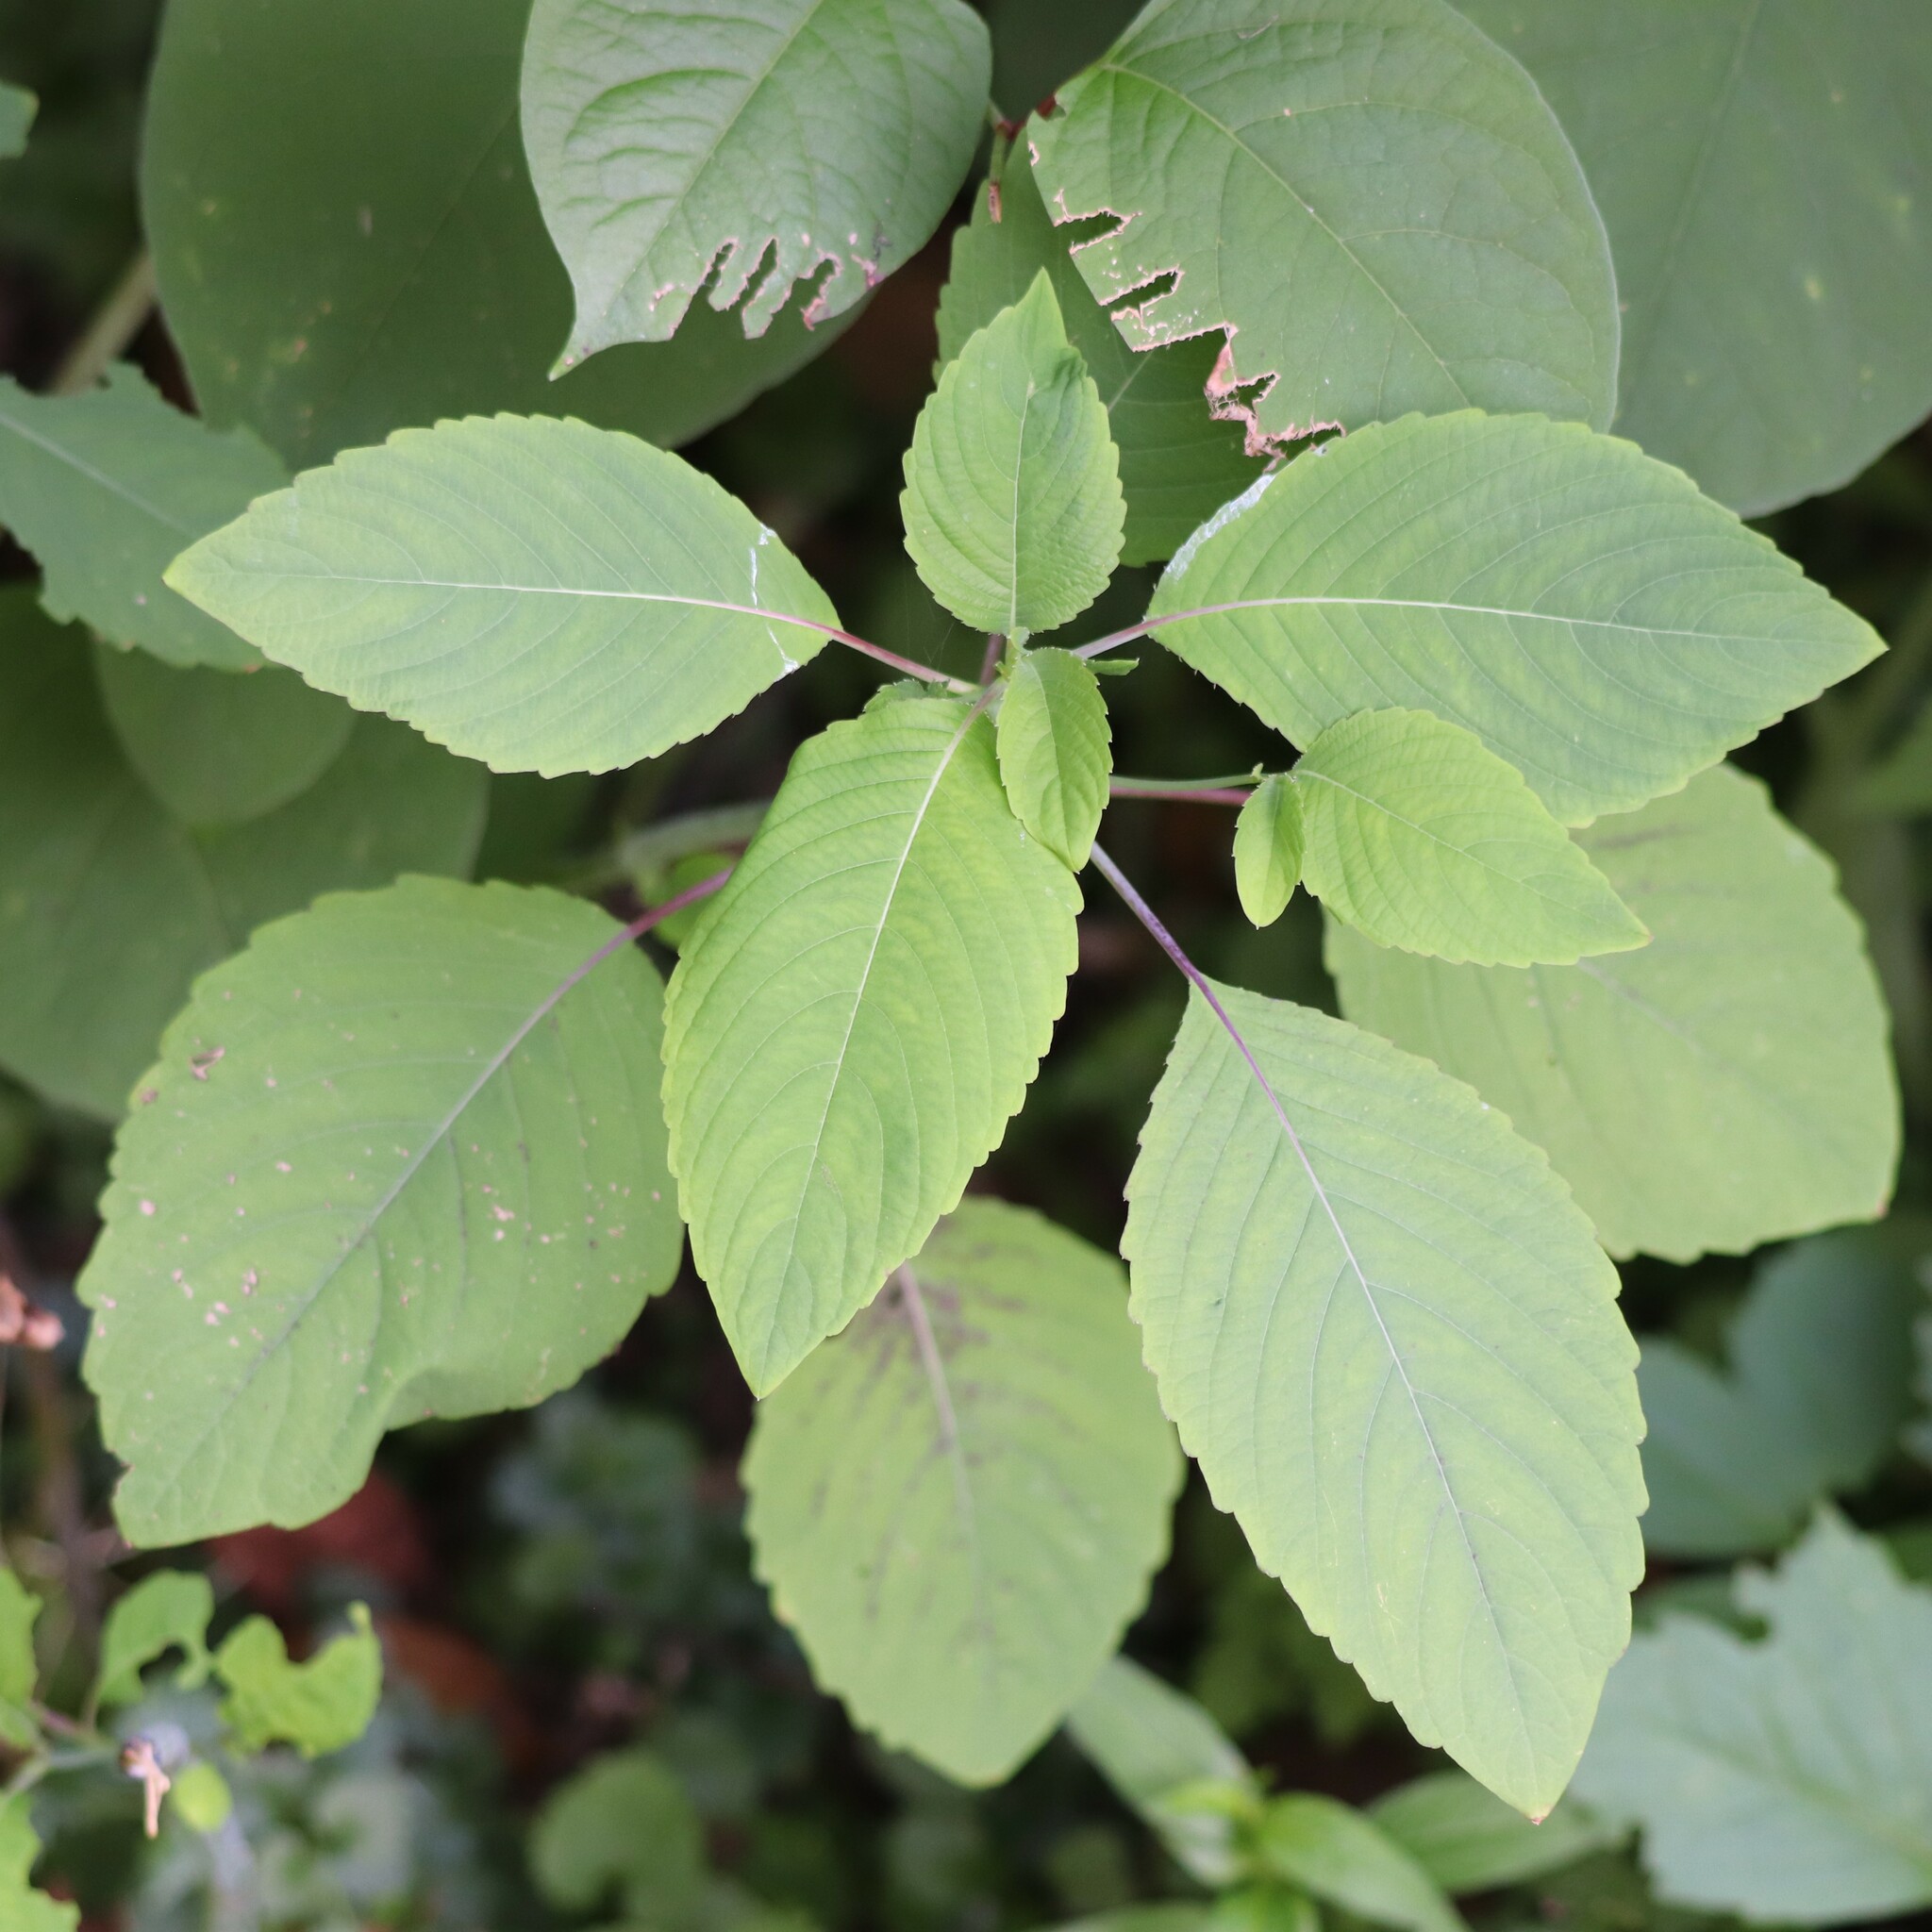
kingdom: Plantae
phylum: Tracheophyta
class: Magnoliopsida
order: Ericales
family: Balsaminaceae
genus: Impatiens
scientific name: Impatiens pallida
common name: Pale snapweed
